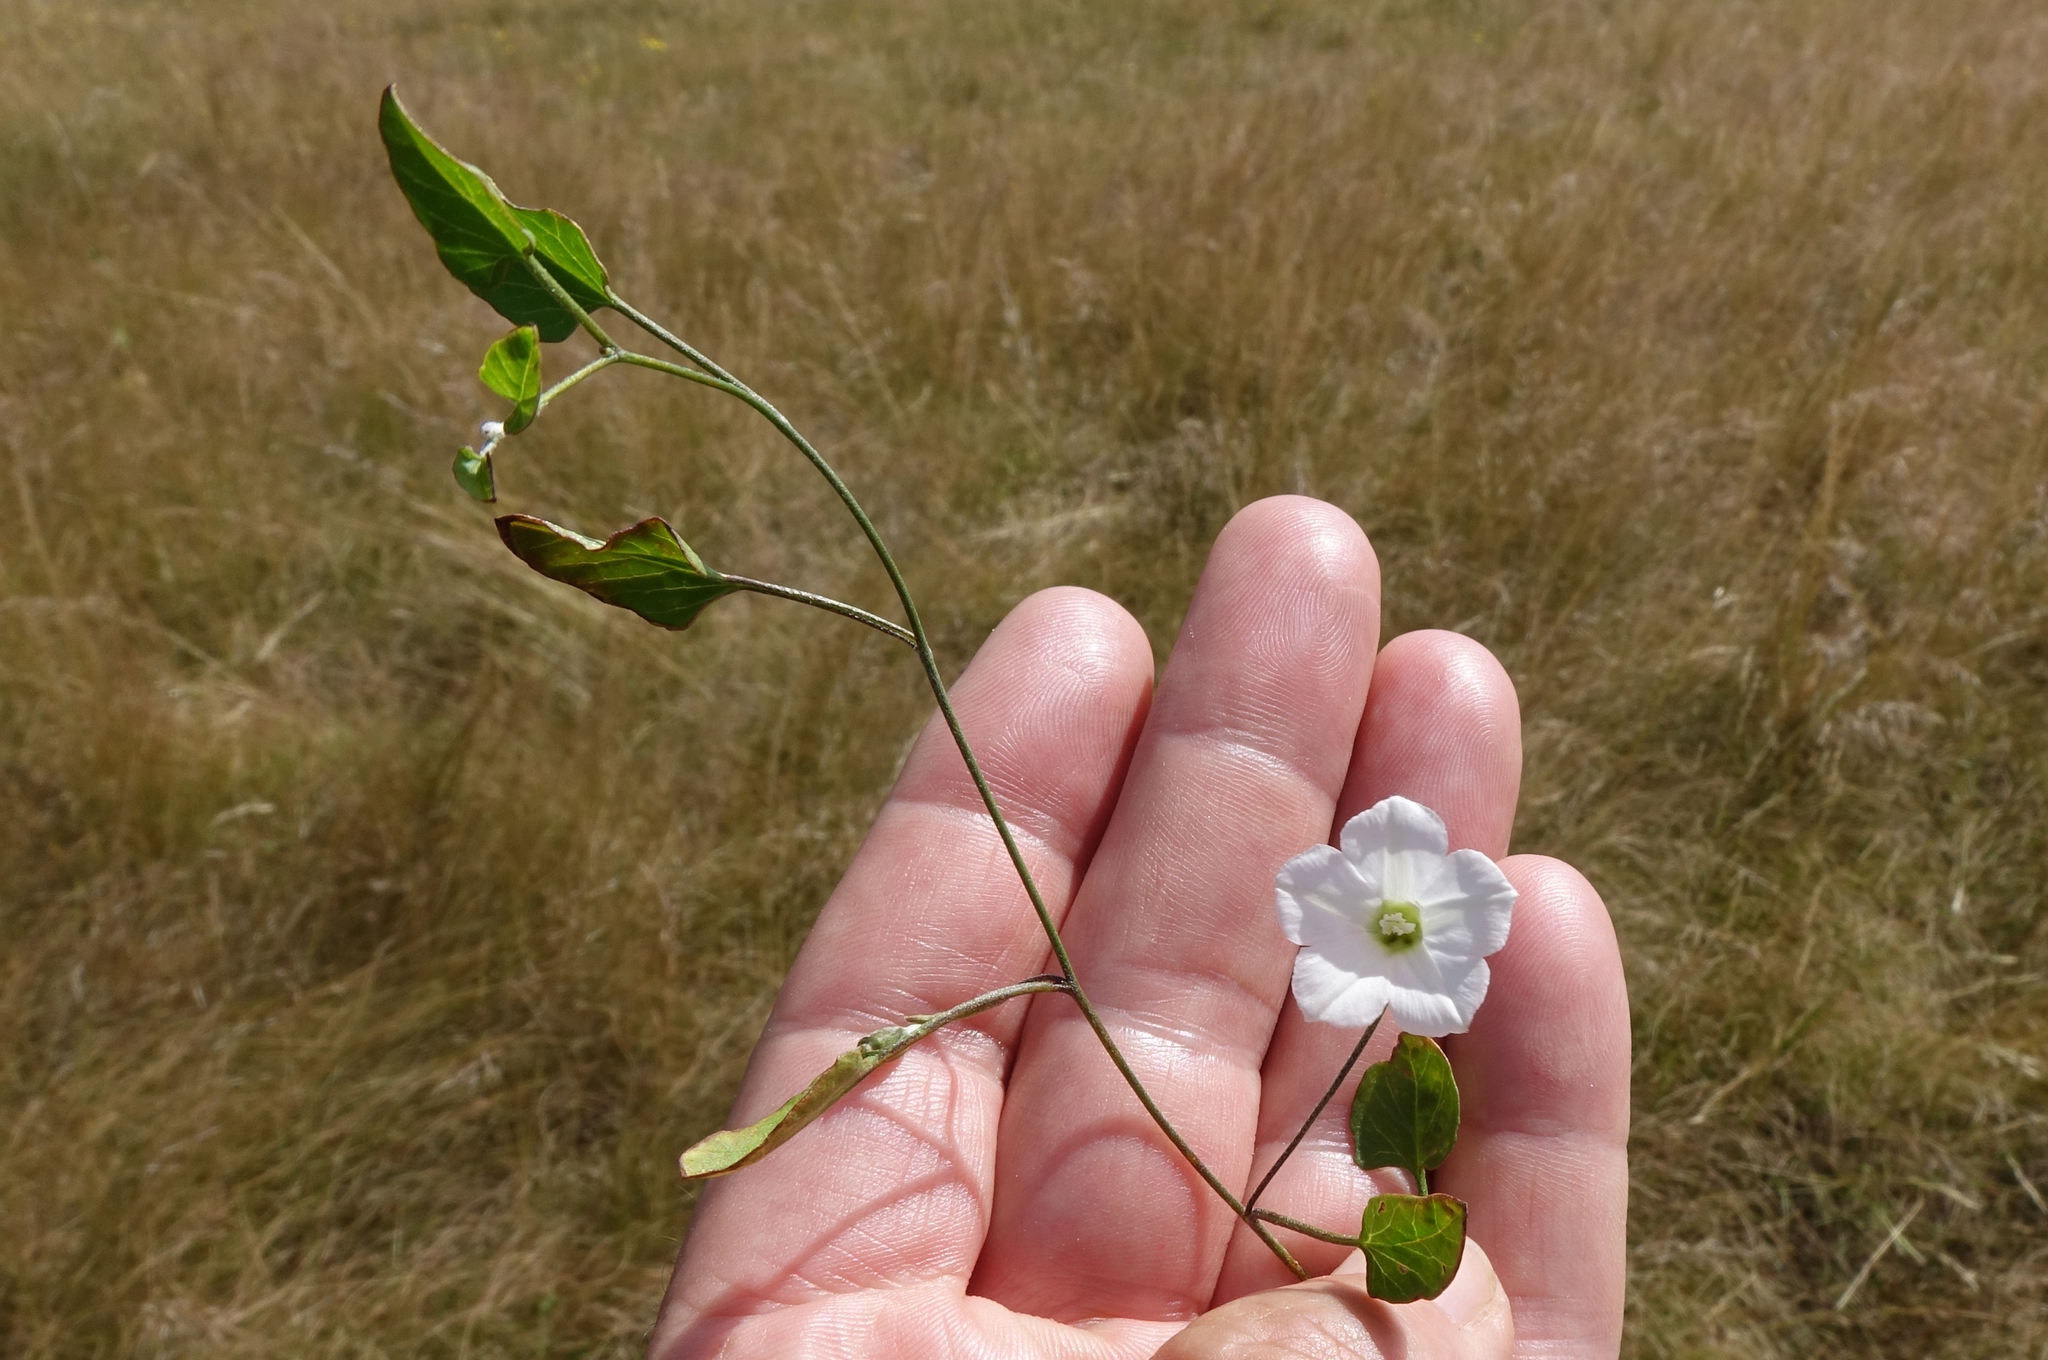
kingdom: Plantae
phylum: Tracheophyta
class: Magnoliopsida
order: Solanales
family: Convolvulaceae
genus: Convolvulus
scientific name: Convolvulus waitaha
